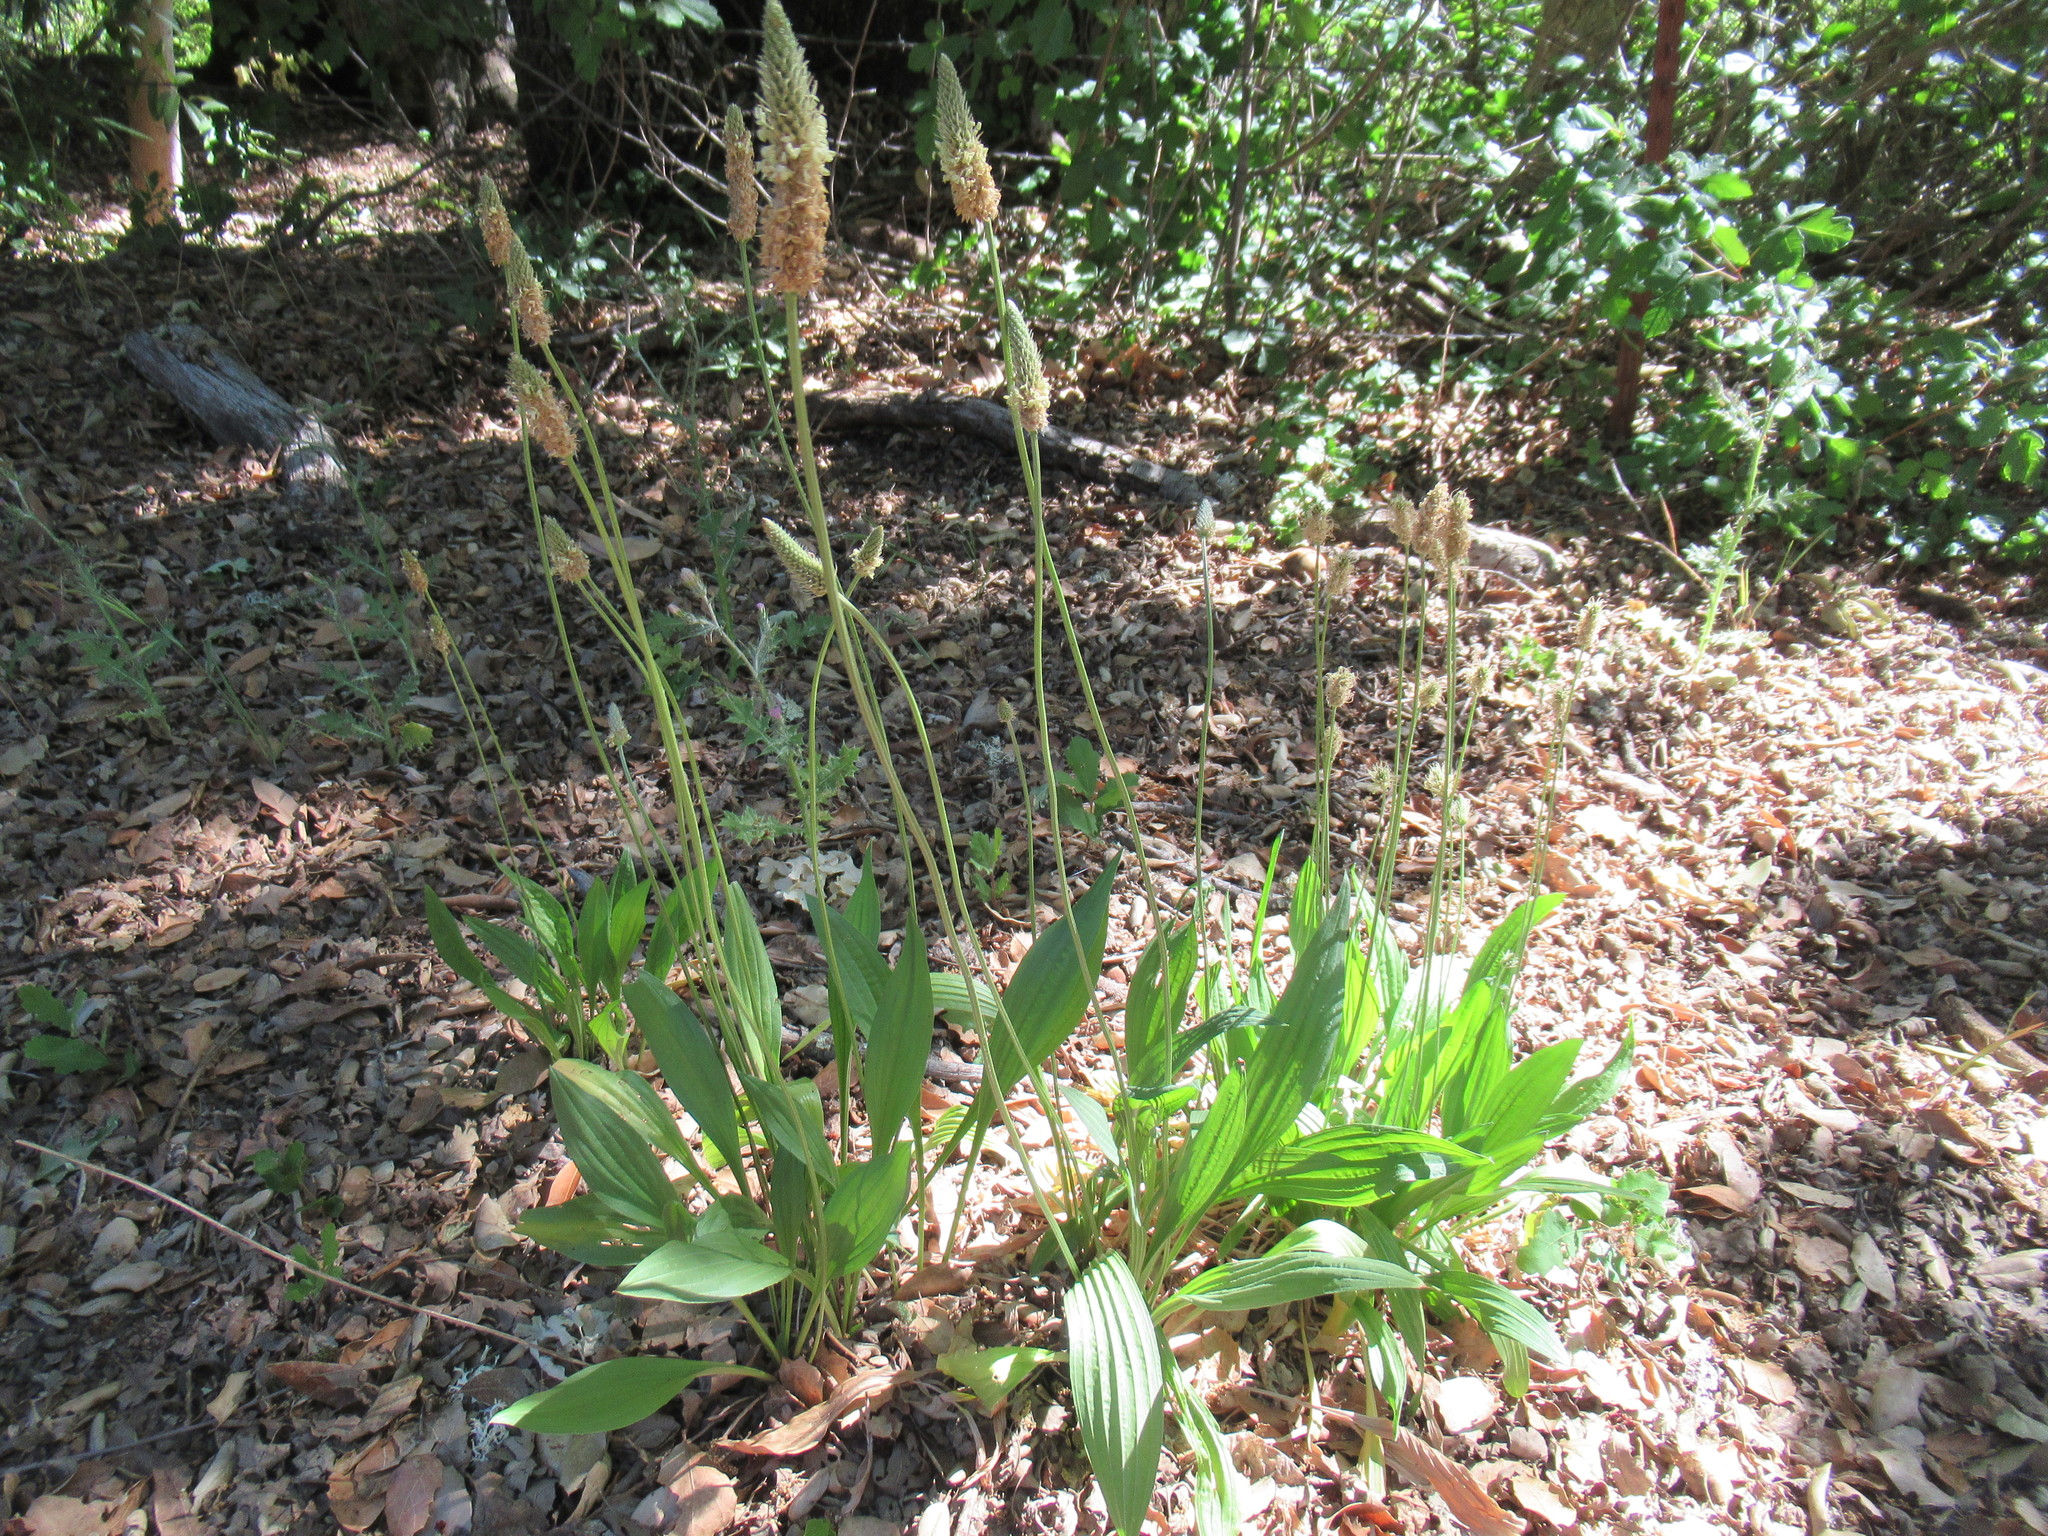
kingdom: Plantae
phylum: Tracheophyta
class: Magnoliopsida
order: Lamiales
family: Plantaginaceae
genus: Plantago
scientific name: Plantago lanceolata
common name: Ribwort plantain
